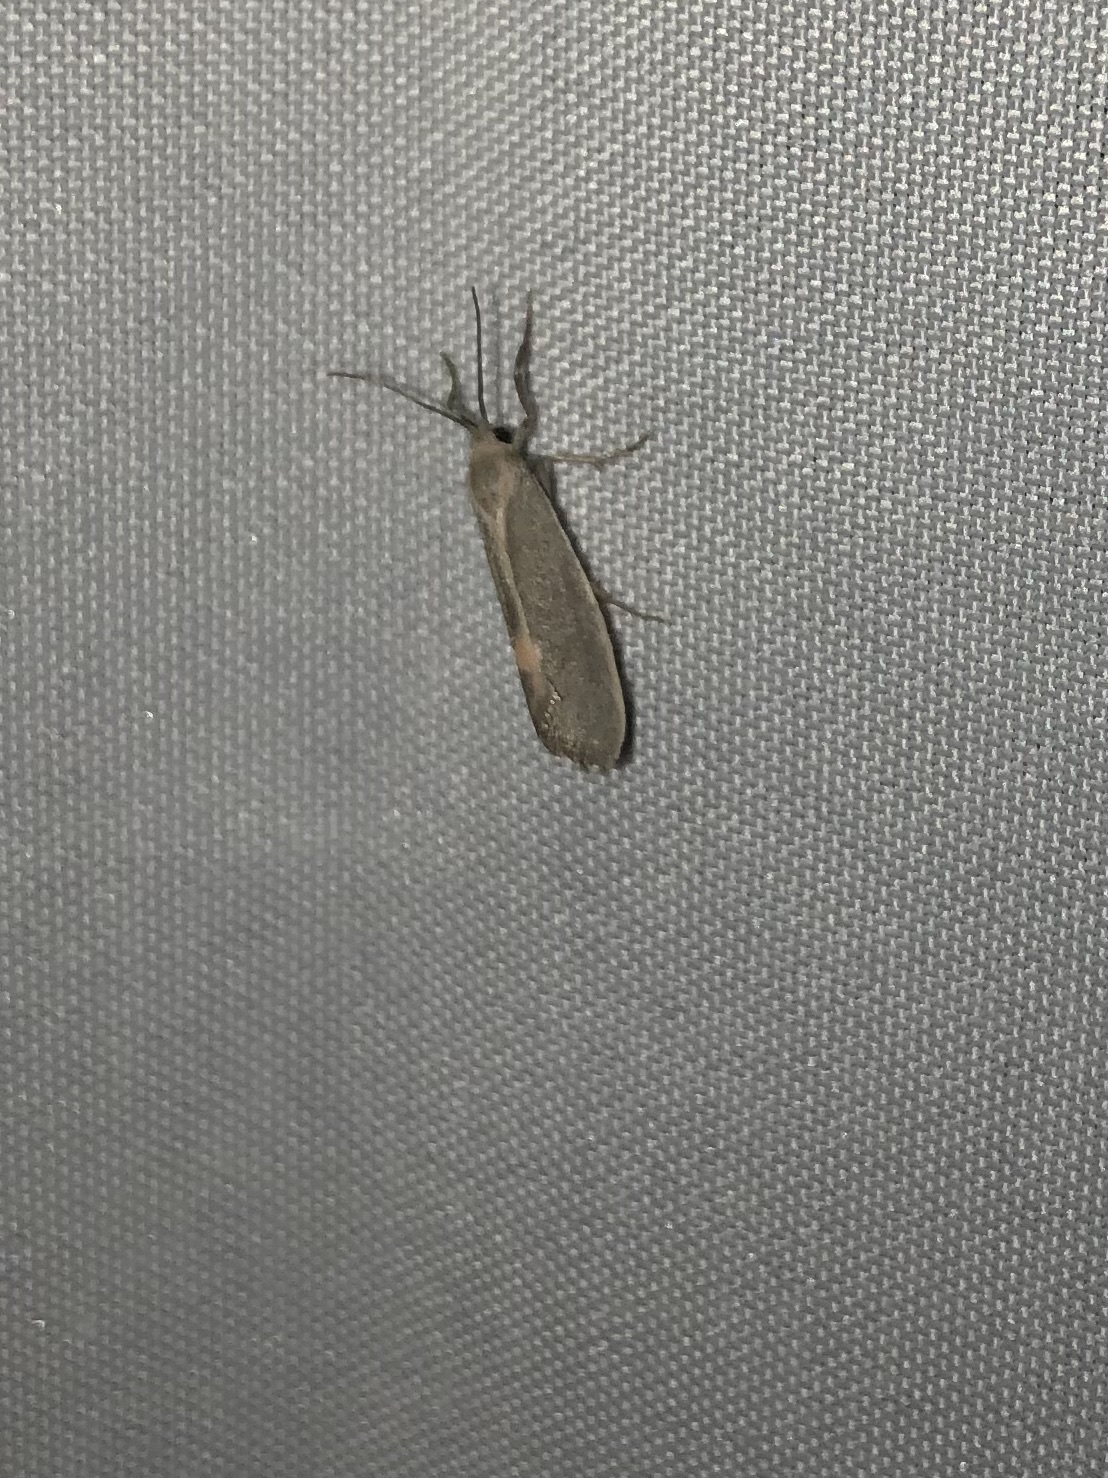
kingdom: Animalia
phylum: Arthropoda
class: Insecta
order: Lepidoptera
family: Erebidae
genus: Cisthene
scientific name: Cisthene plumbea
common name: Lead colored lichen moth
